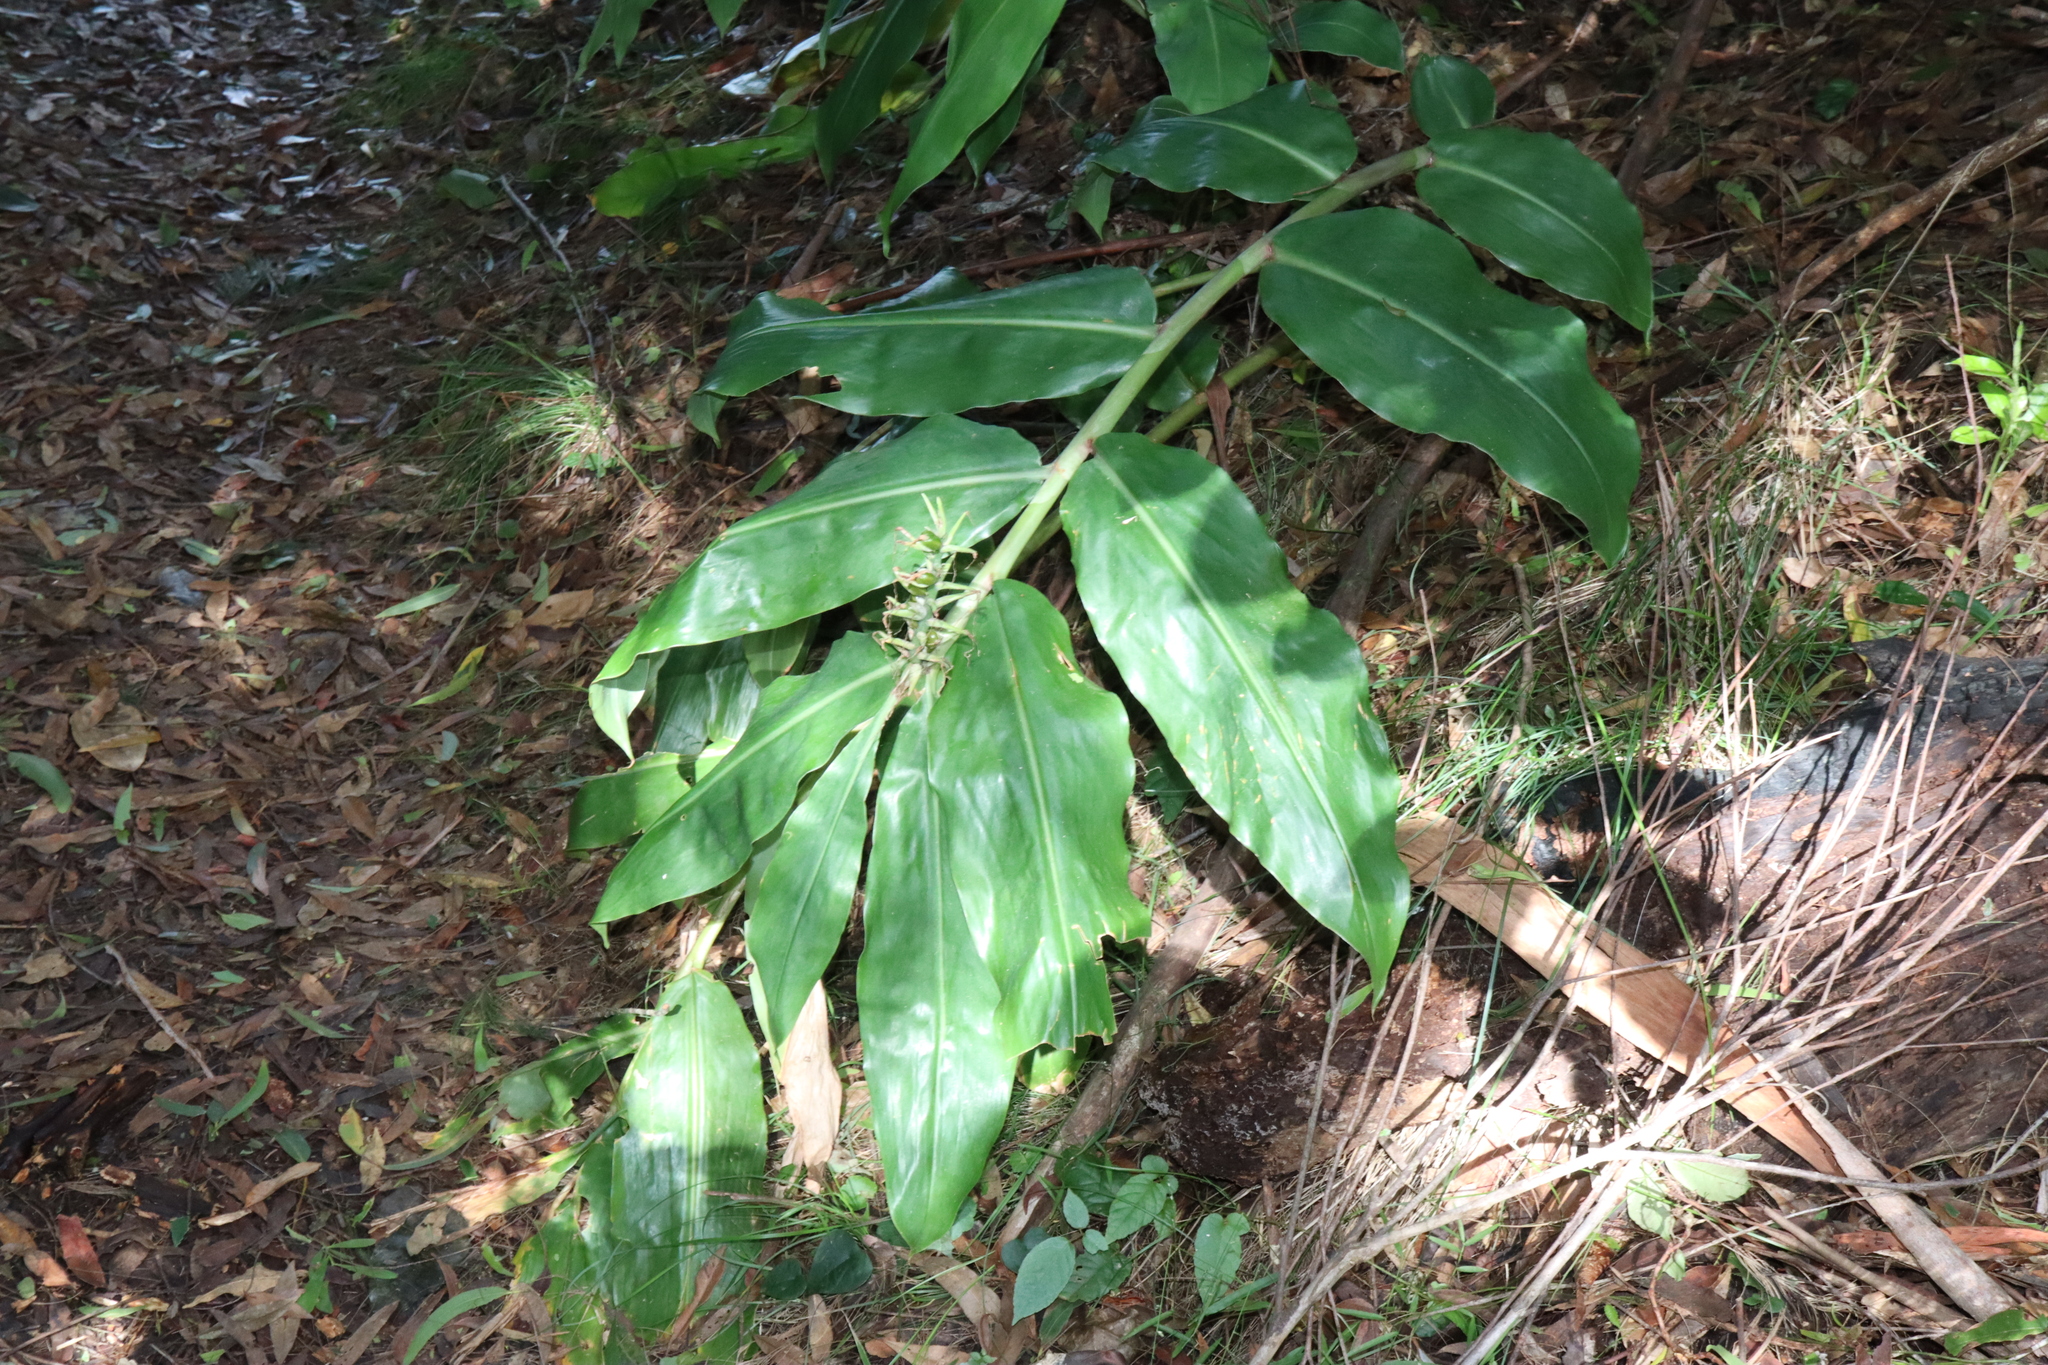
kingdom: Plantae
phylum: Tracheophyta
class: Liliopsida
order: Zingiberales
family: Zingiberaceae
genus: Hedychium
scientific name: Hedychium gardnerianum
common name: Himalayan ginger
